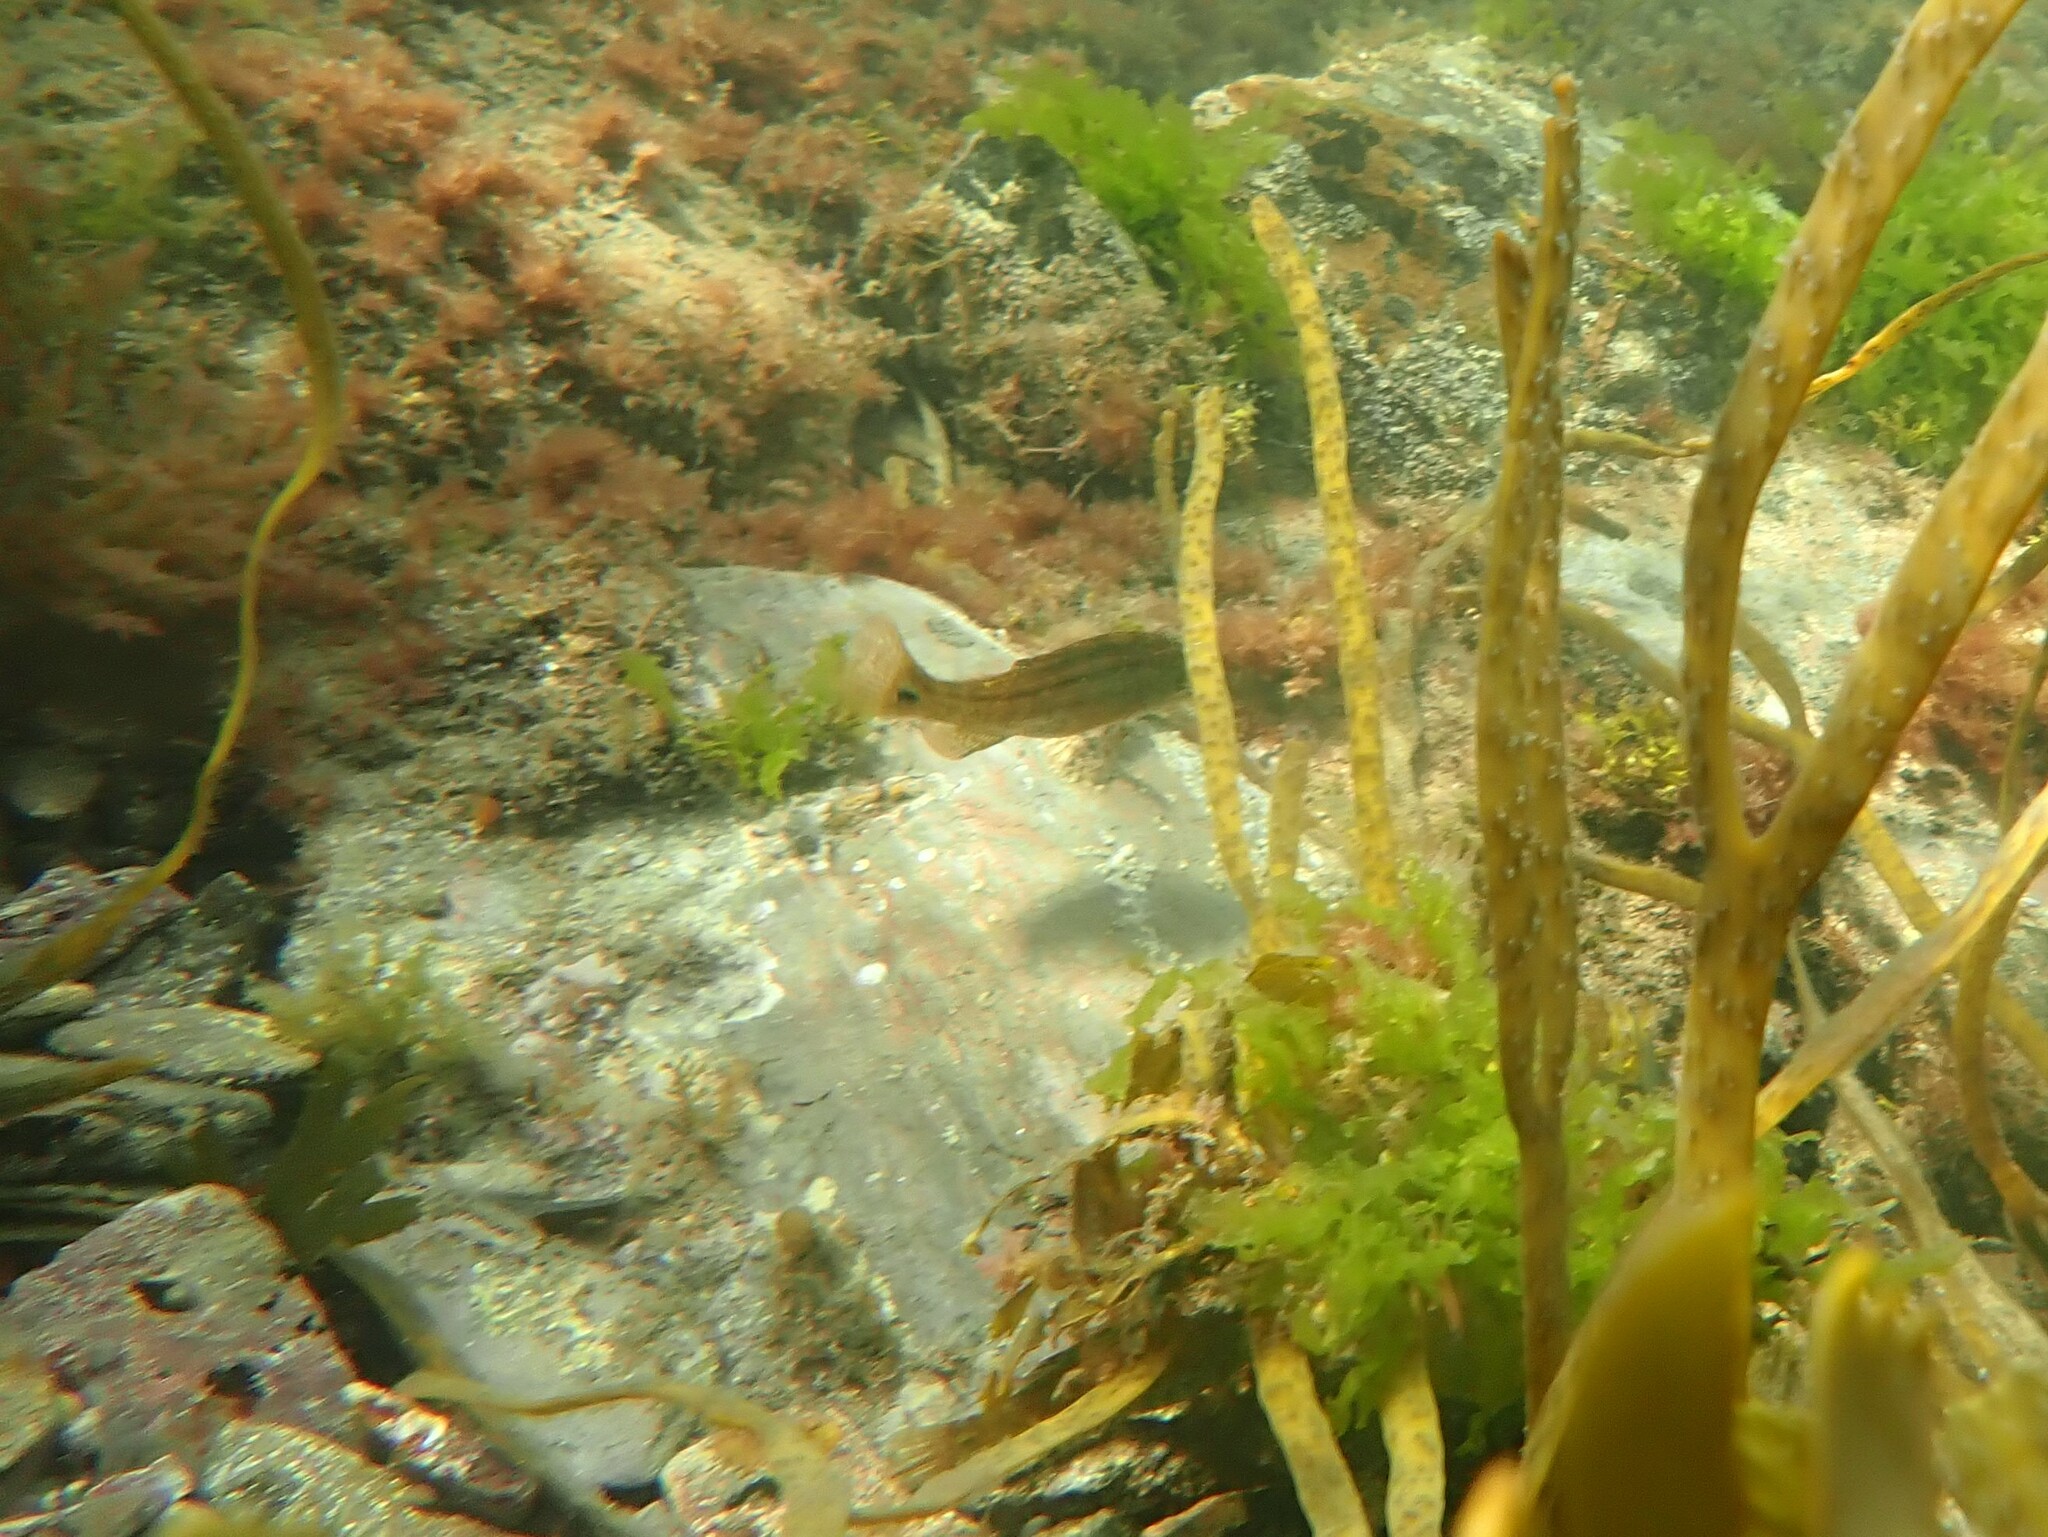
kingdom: Animalia
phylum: Chordata
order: Perciformes
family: Labridae
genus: Symphodus
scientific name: Symphodus melops
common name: Corkwing
